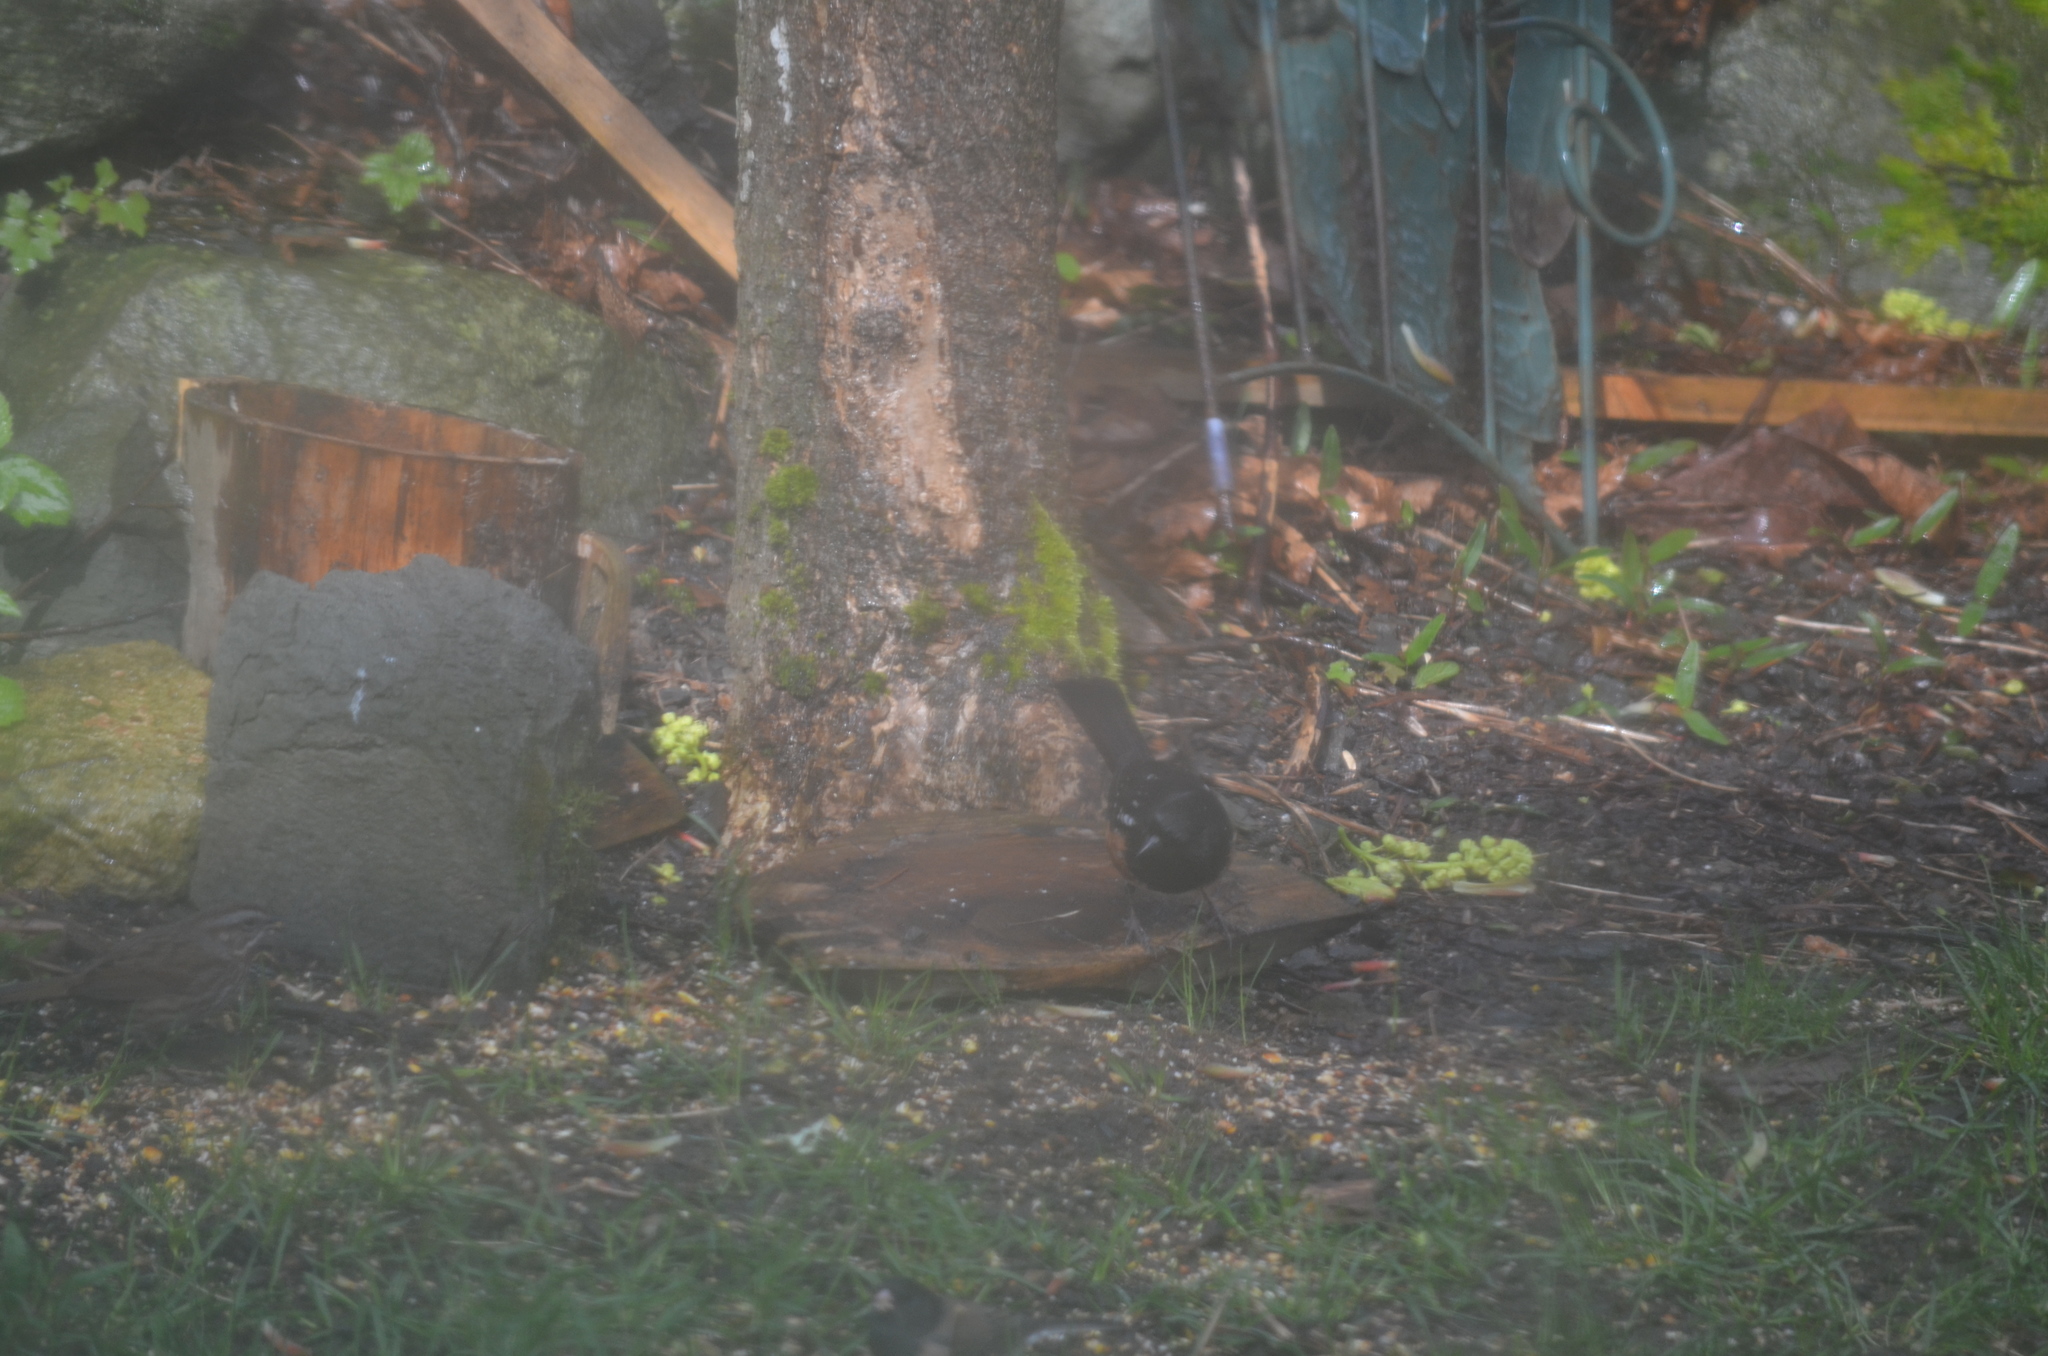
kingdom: Animalia
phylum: Chordata
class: Aves
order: Passeriformes
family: Passerellidae
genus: Pipilo
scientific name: Pipilo maculatus
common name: Spotted towhee
